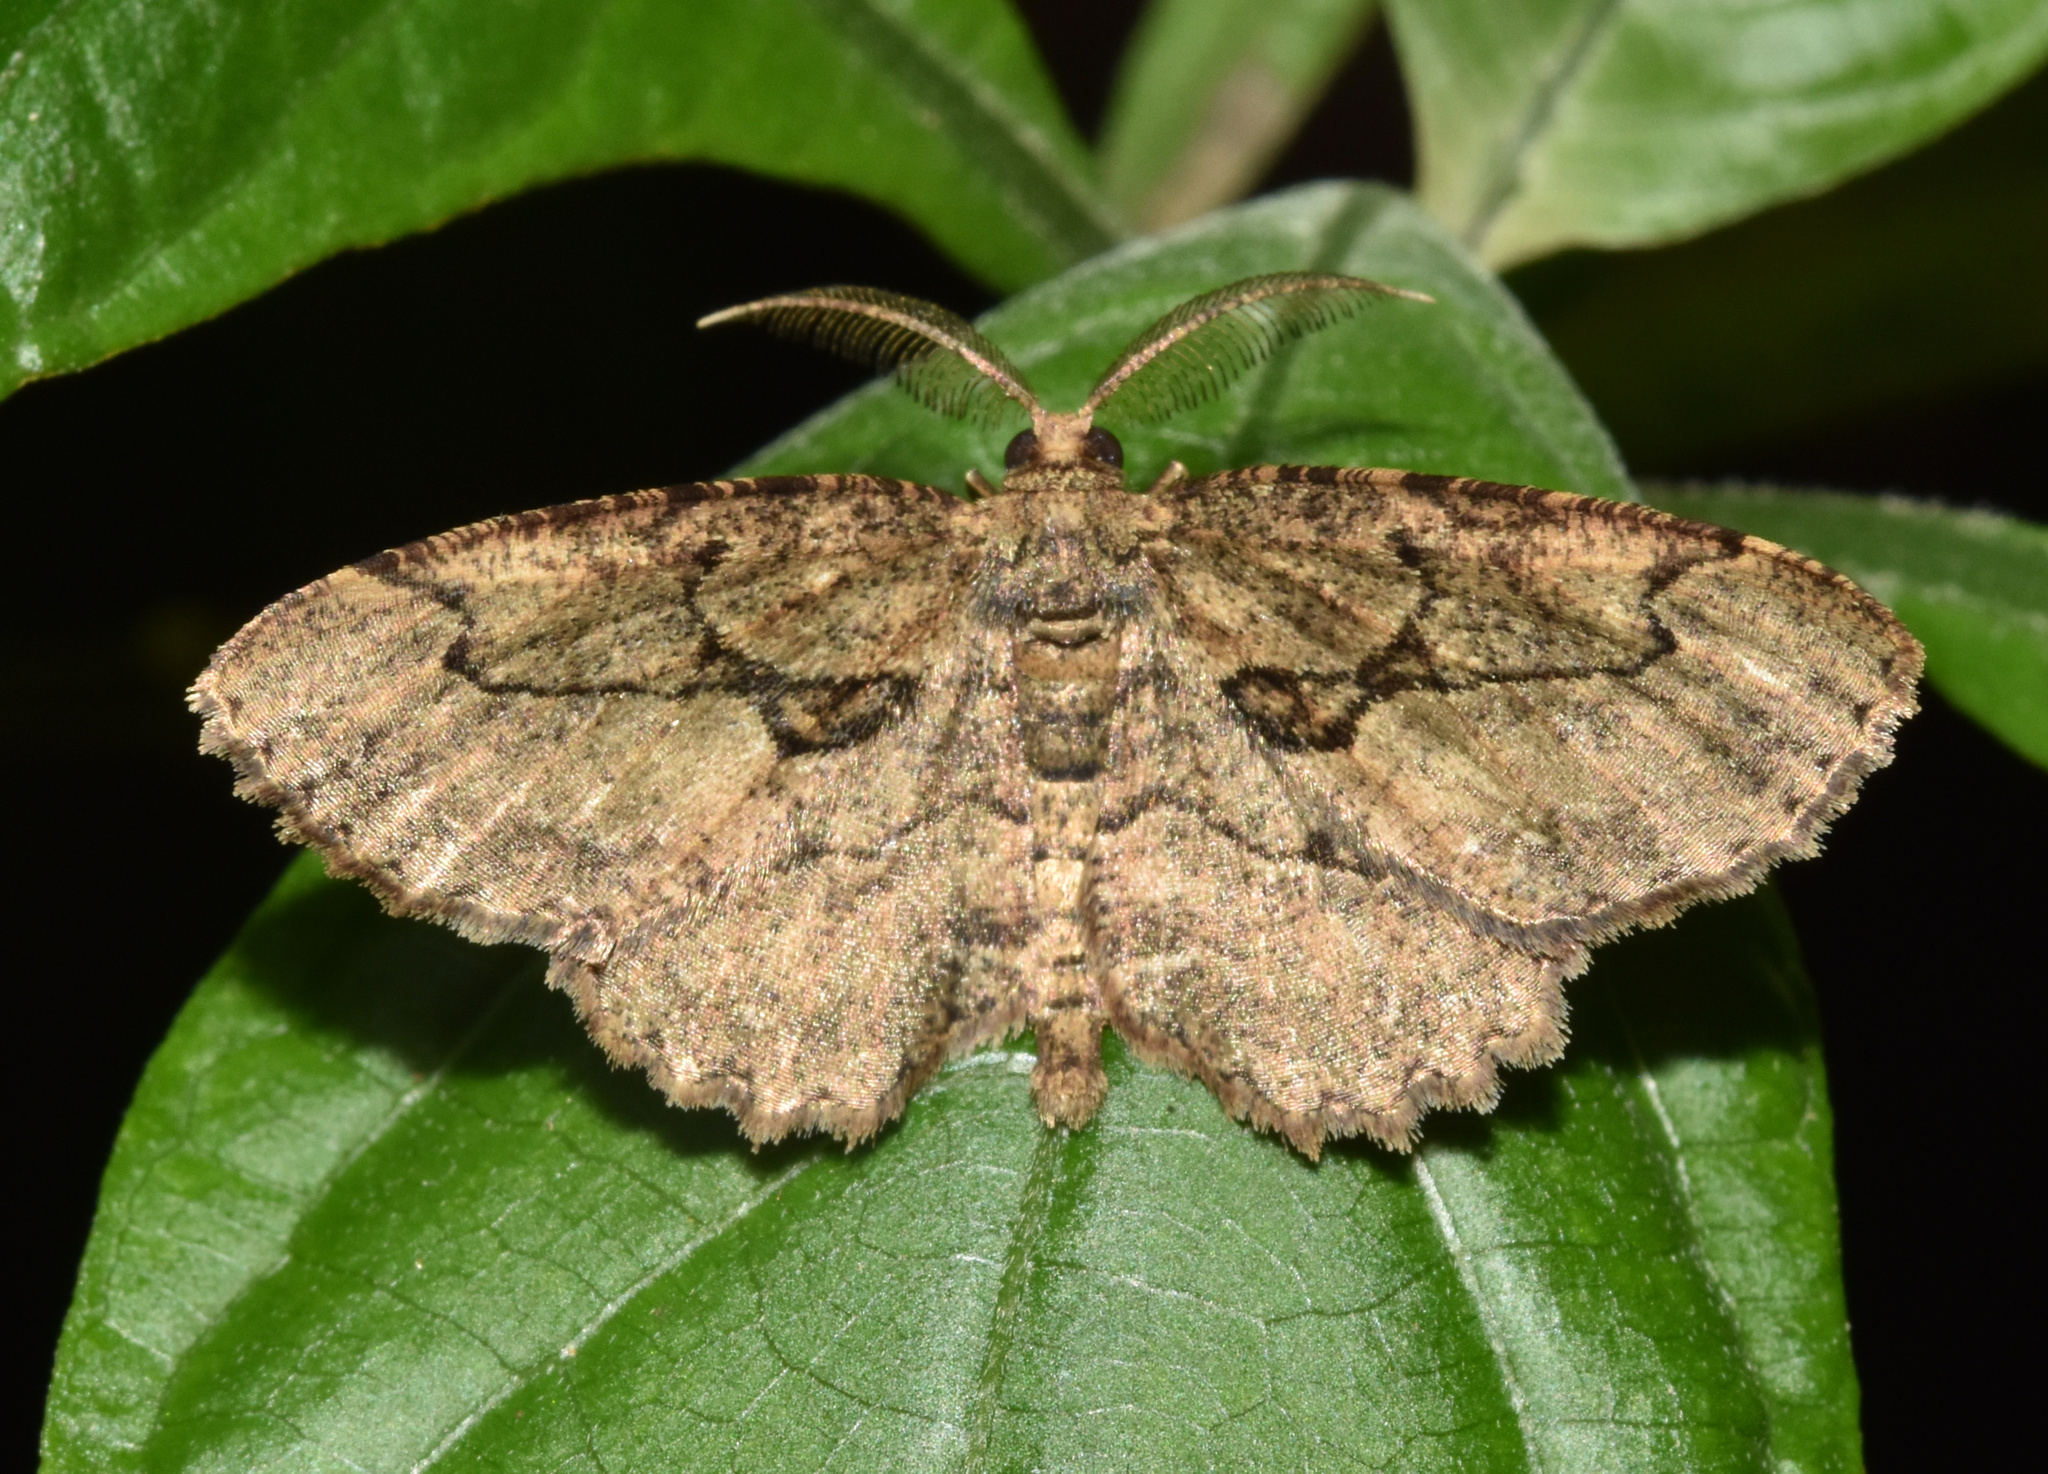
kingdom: Animalia
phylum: Arthropoda
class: Insecta
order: Lepidoptera
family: Geometridae
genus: Menophra
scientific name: Menophra serrataria
